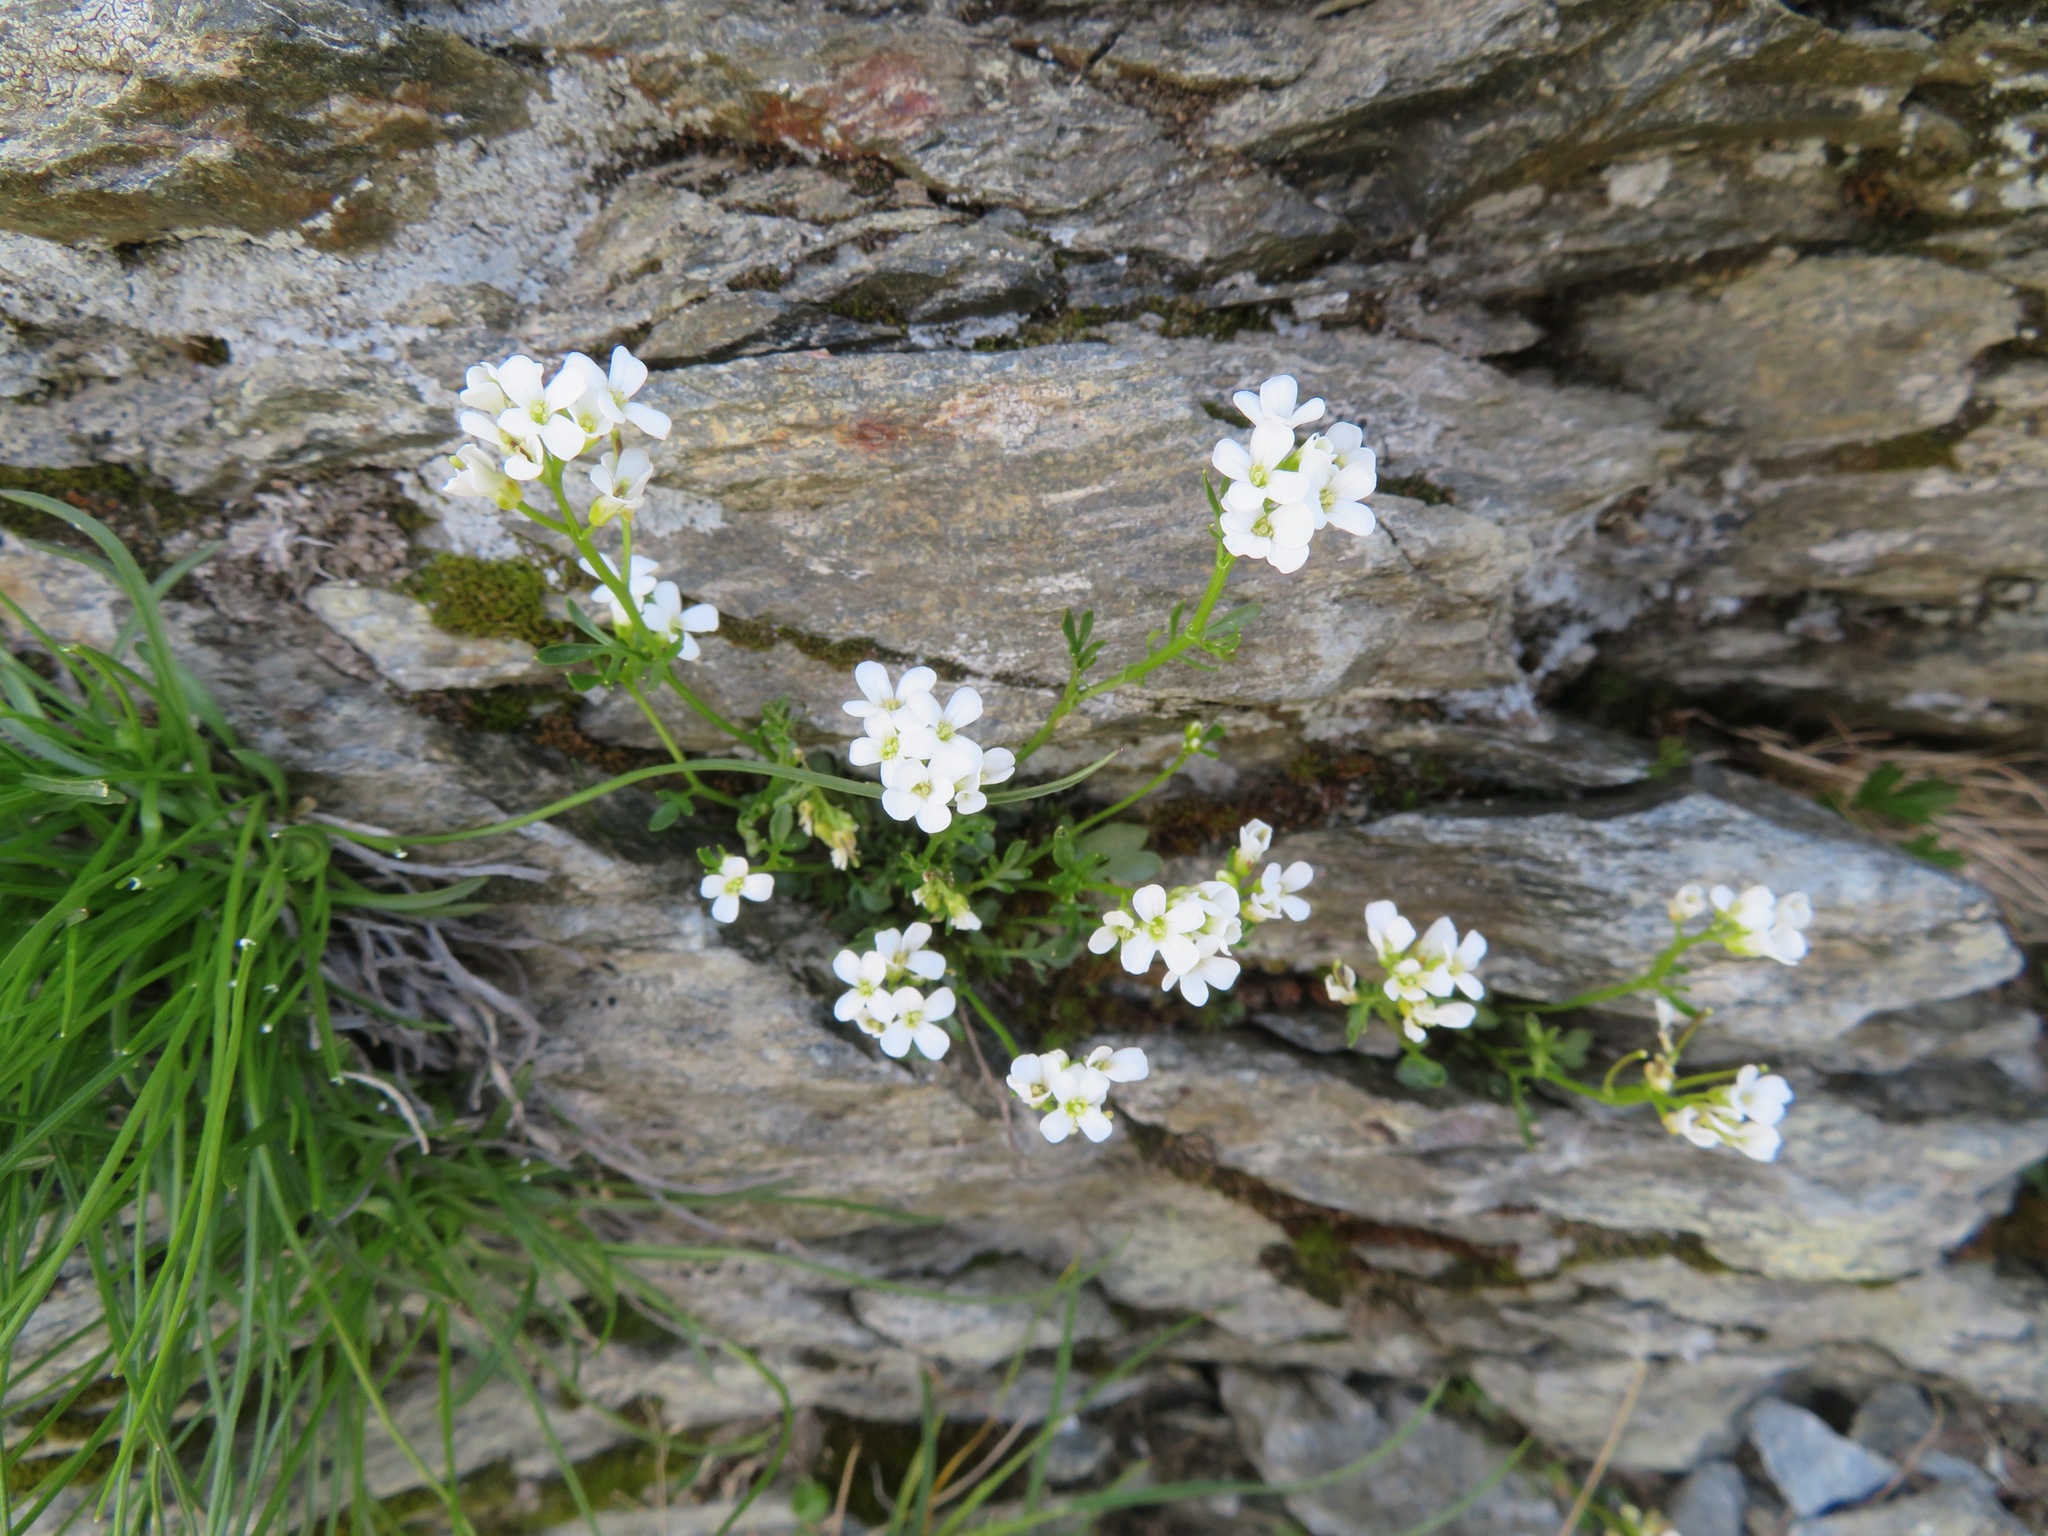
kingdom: Plantae
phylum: Tracheophyta
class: Magnoliopsida
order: Brassicales
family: Brassicaceae
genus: Cardamine
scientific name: Cardamine resedifolia
